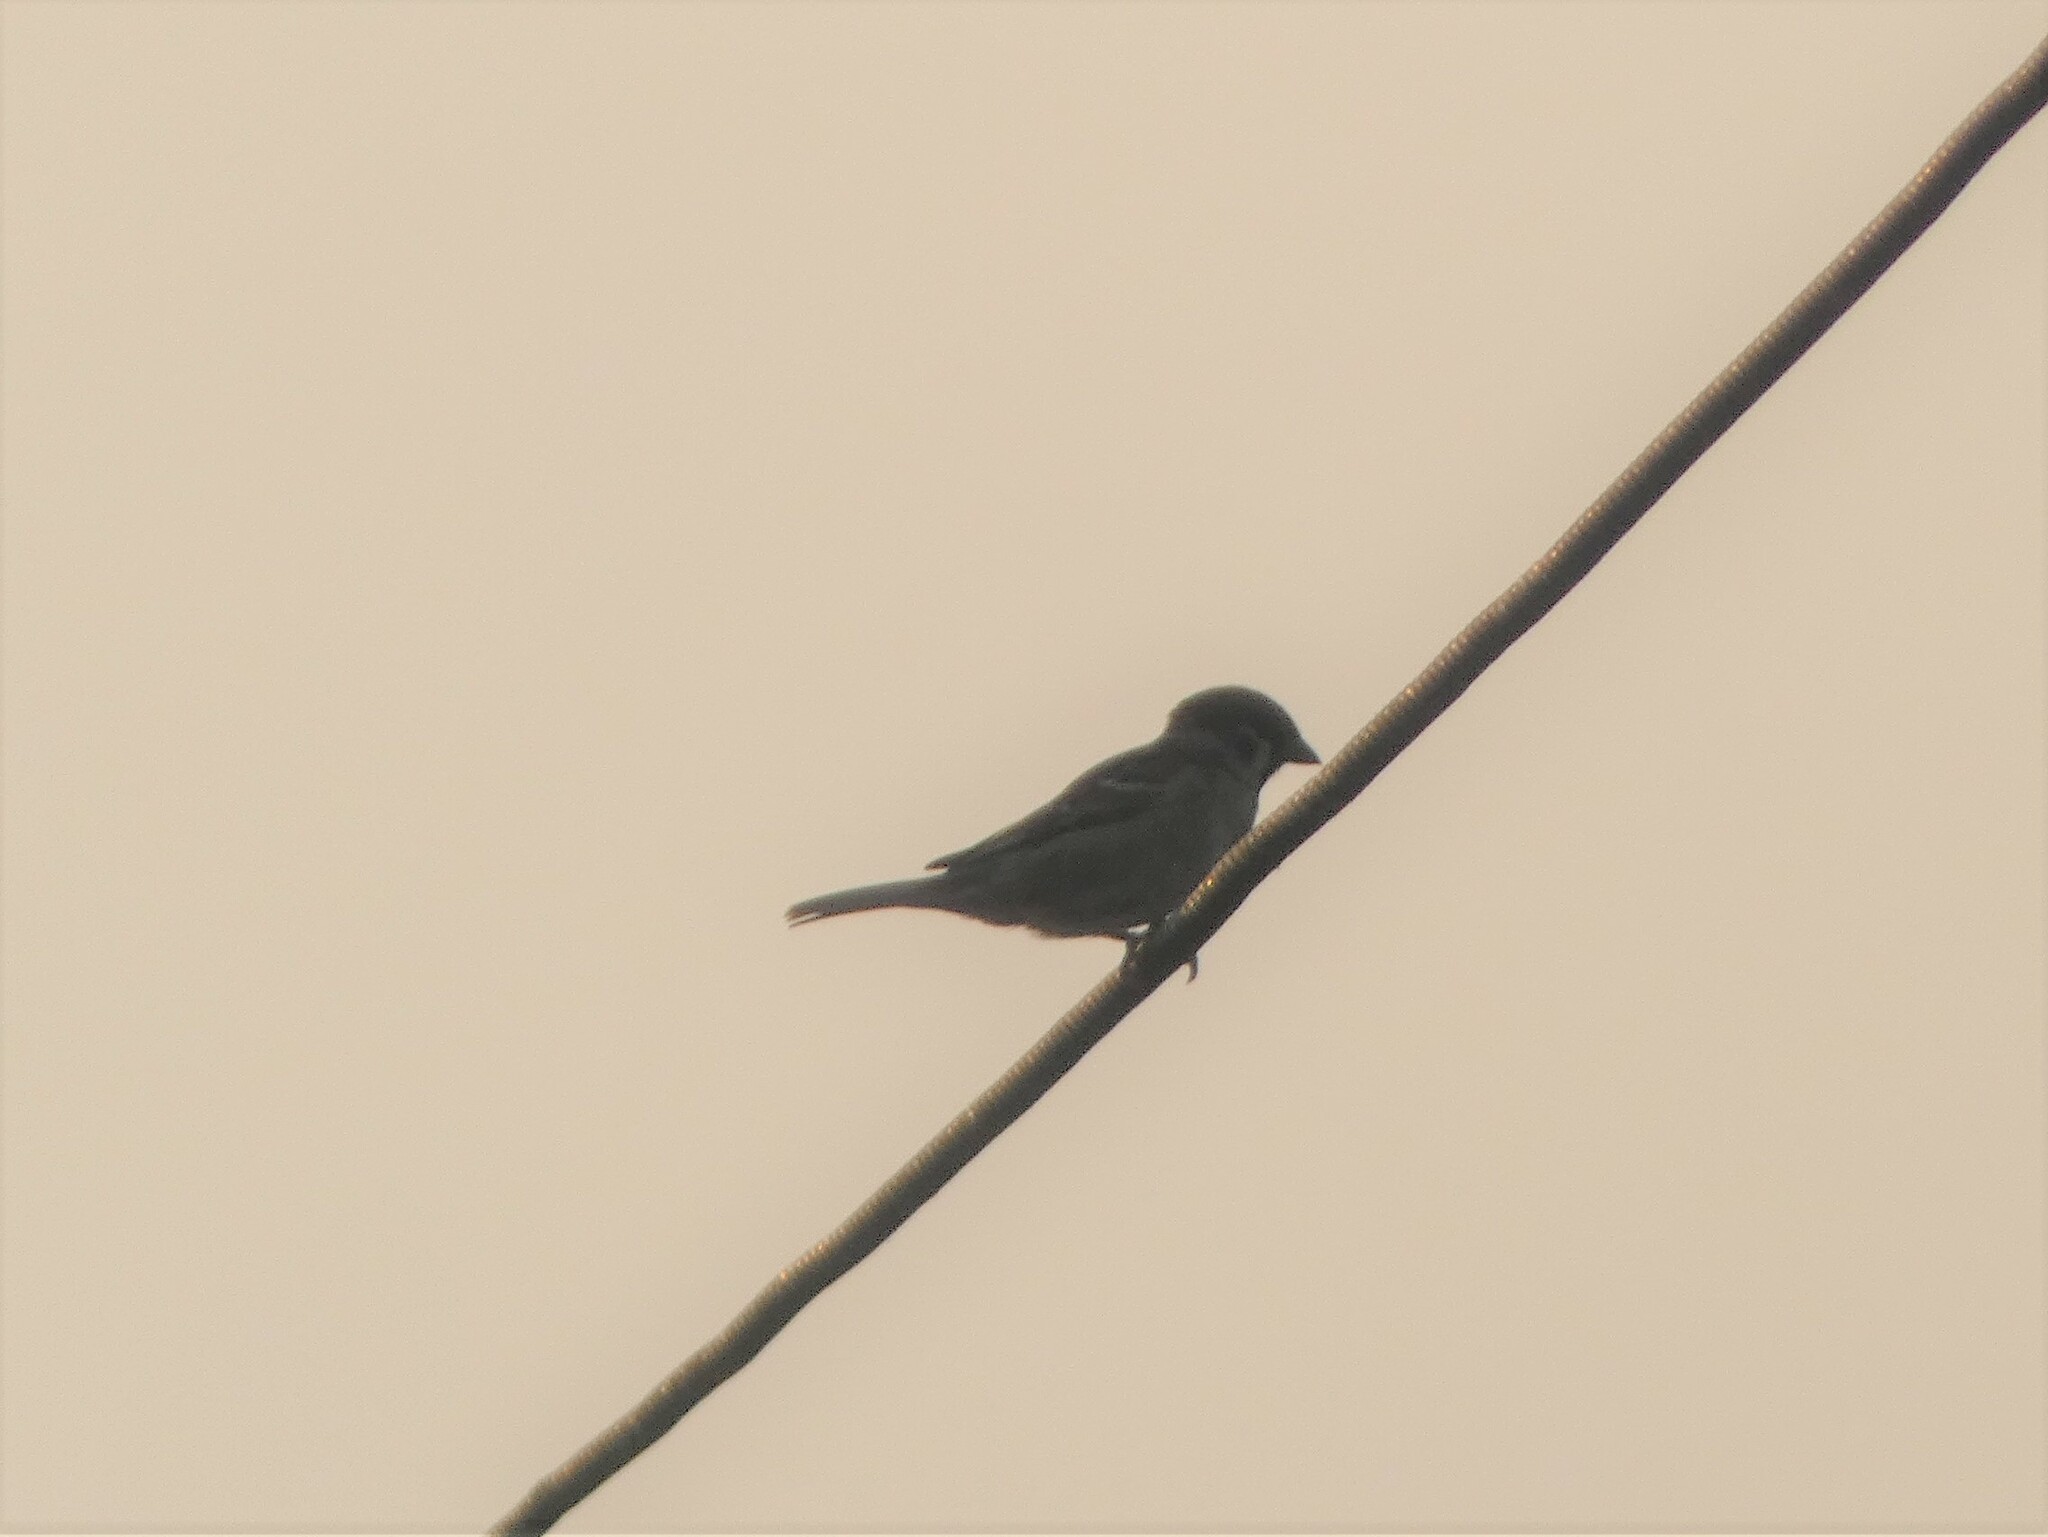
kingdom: Animalia
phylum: Chordata
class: Aves
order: Passeriformes
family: Passeridae
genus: Passer
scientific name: Passer montanus
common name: Eurasian tree sparrow
